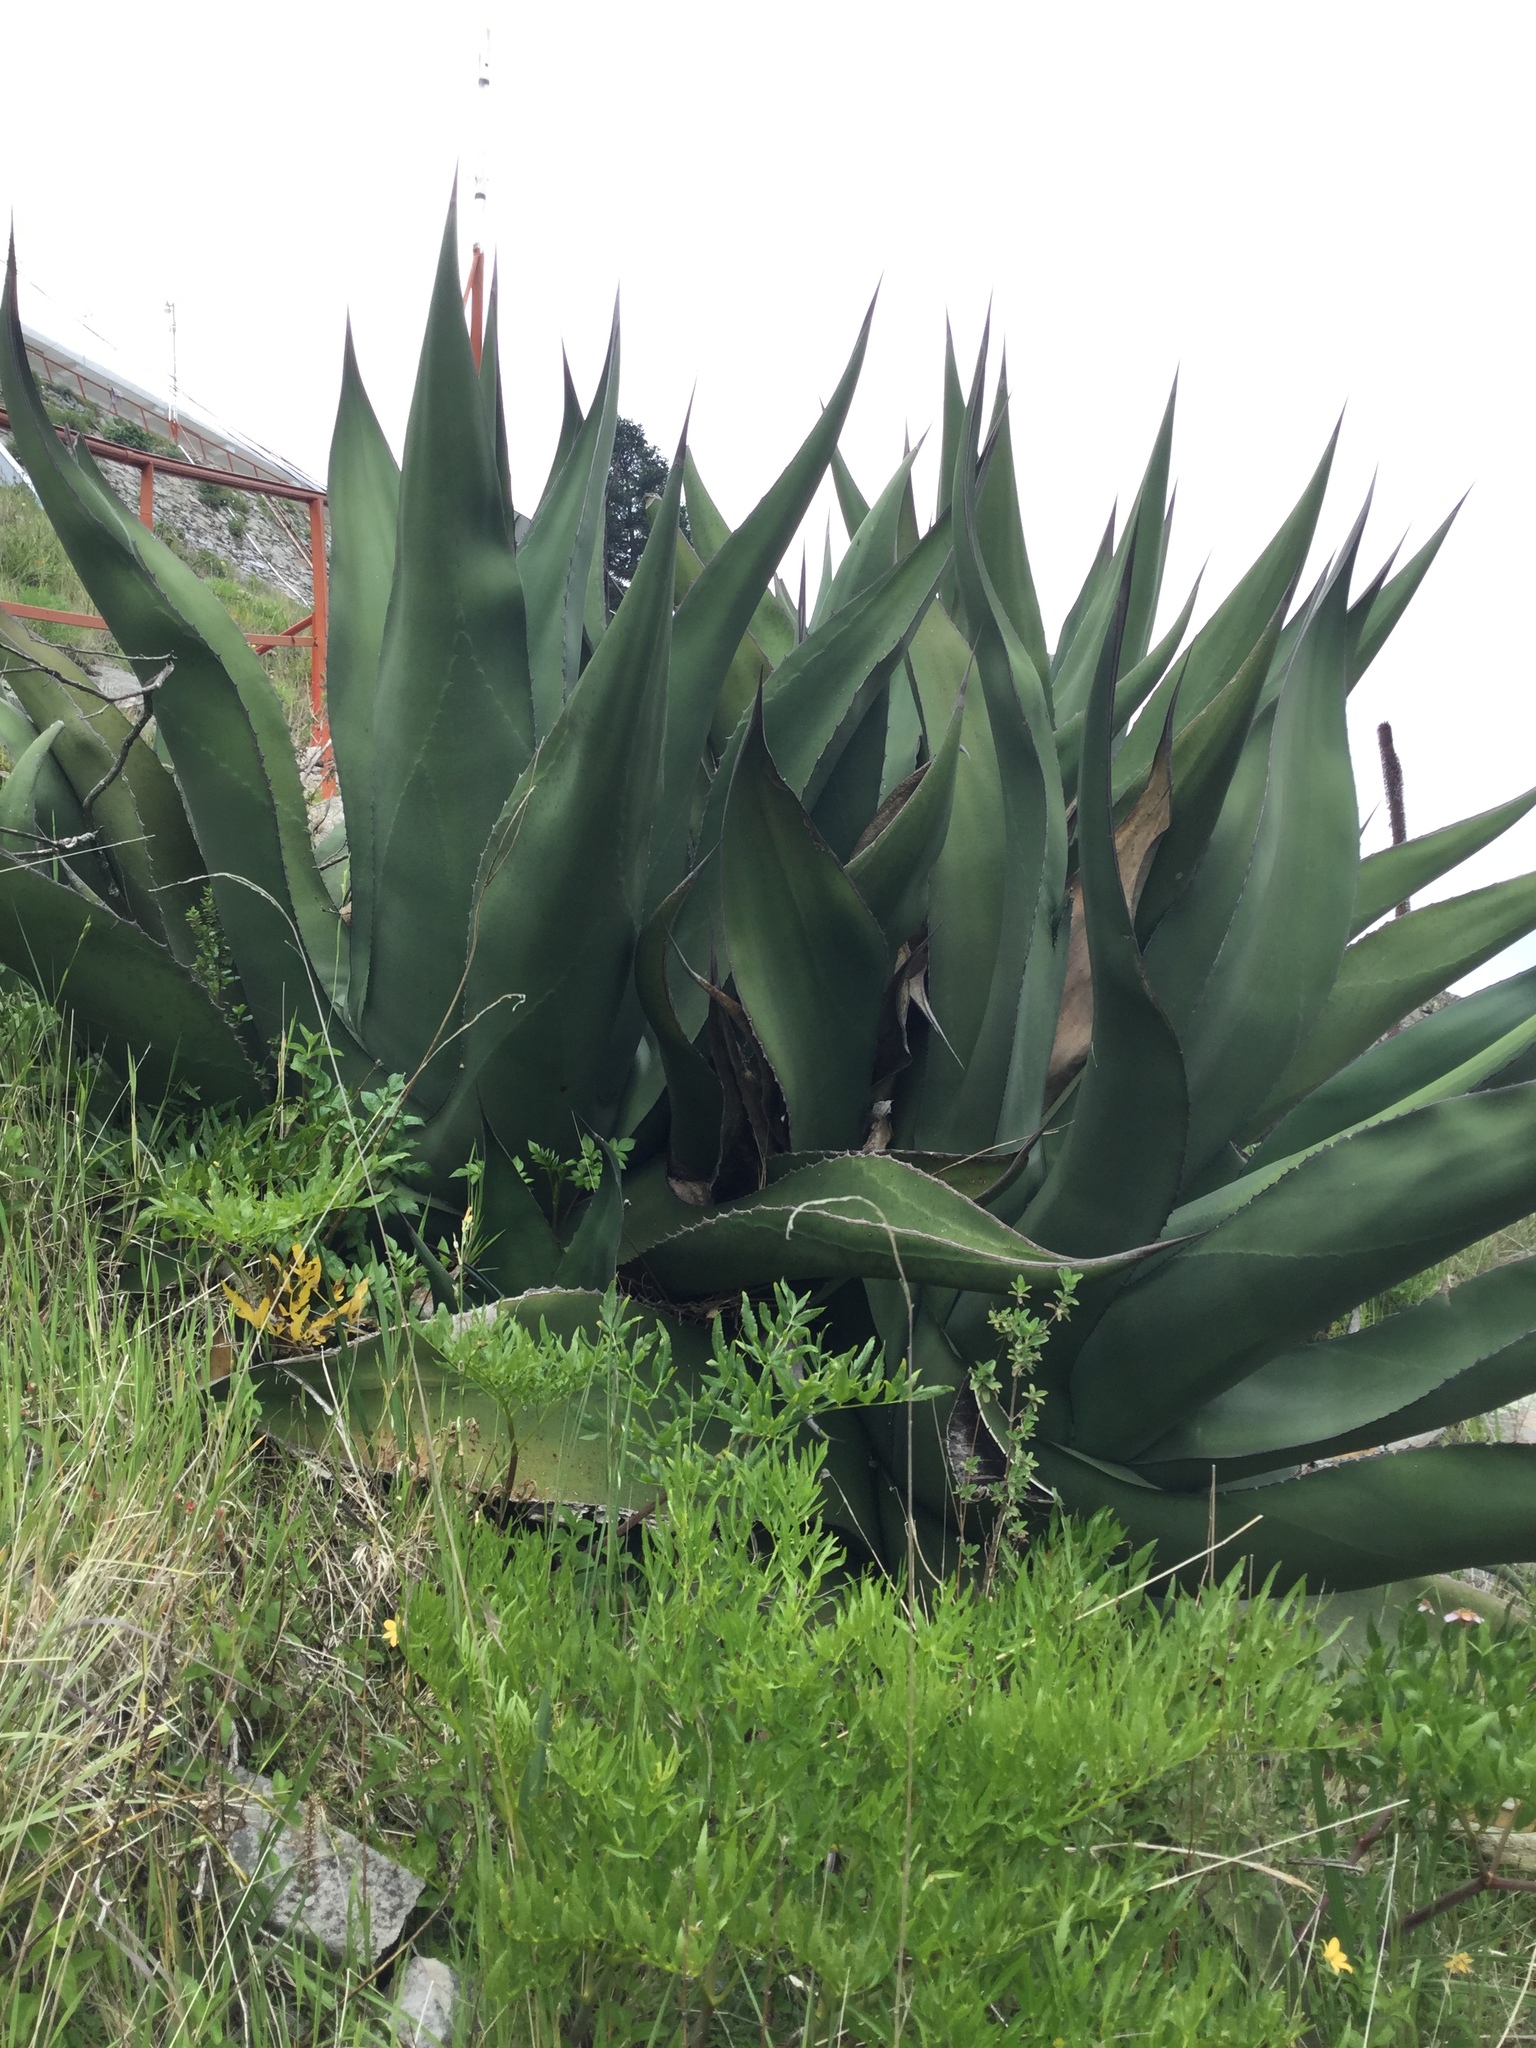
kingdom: Plantae
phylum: Tracheophyta
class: Liliopsida
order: Asparagales
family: Asparagaceae
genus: Agave
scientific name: Agave salmiana
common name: Pulque agave
